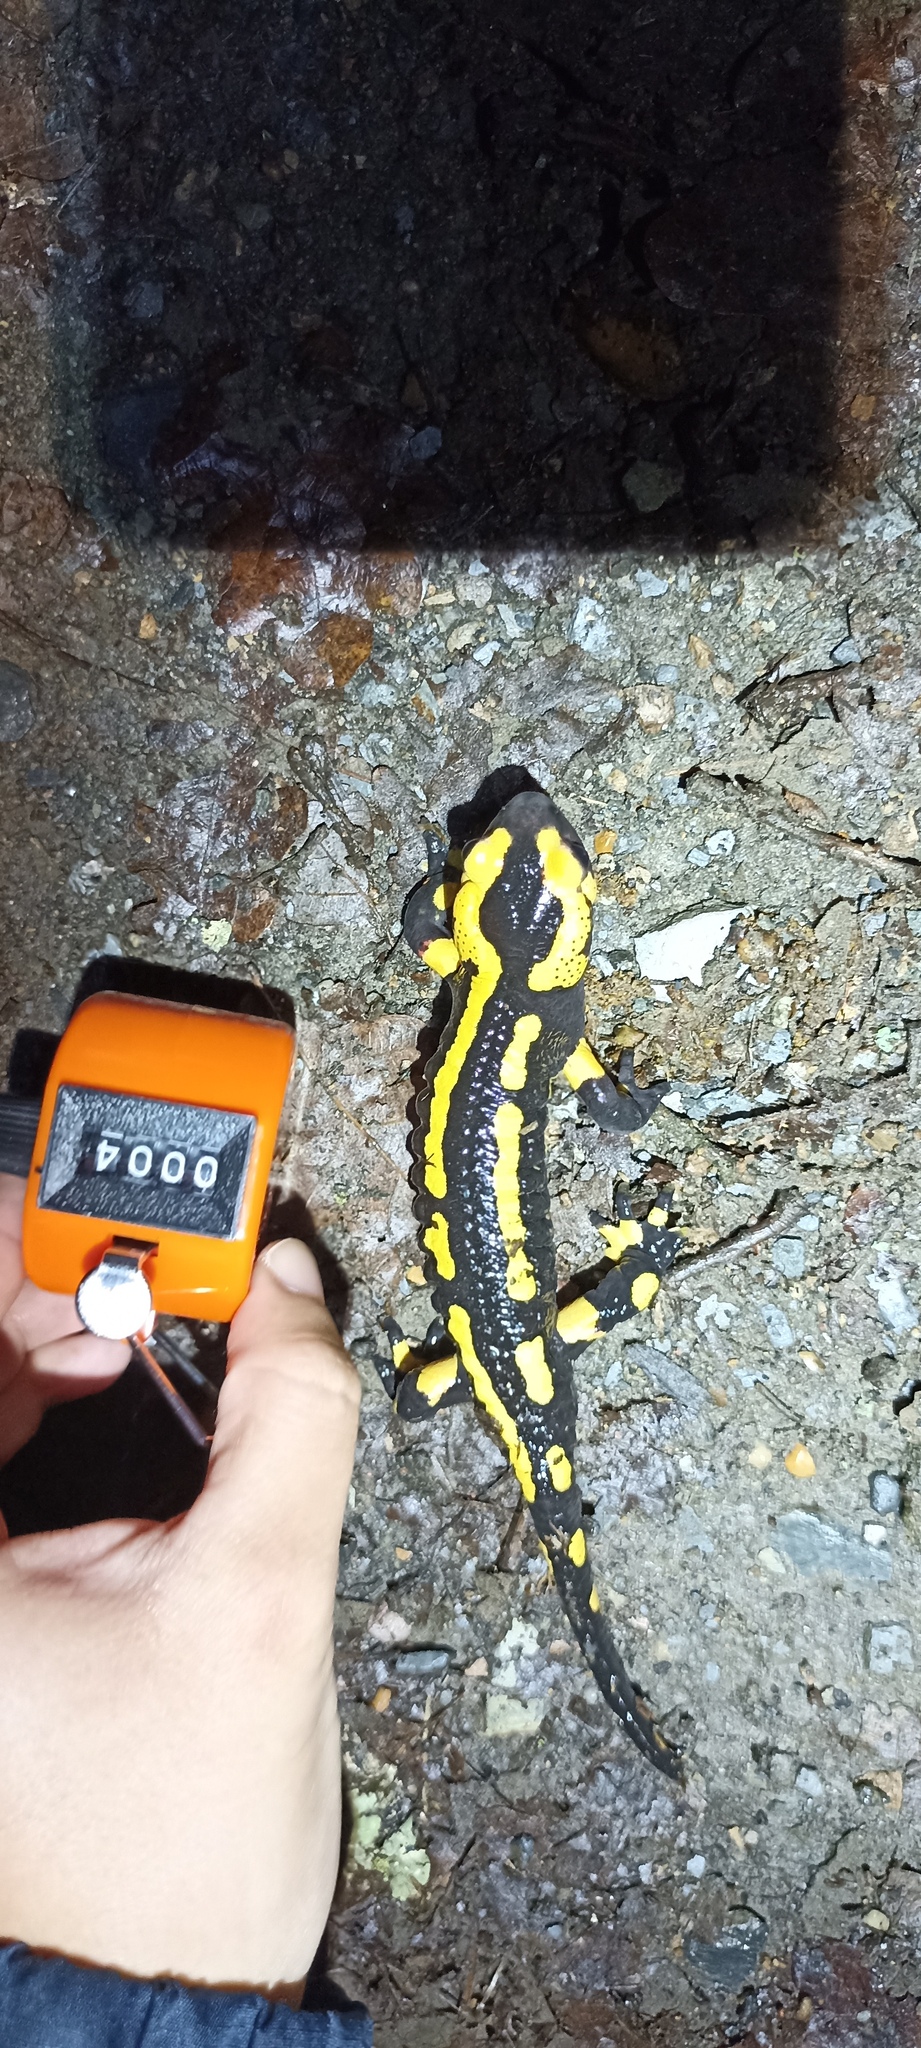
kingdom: Animalia
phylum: Chordata
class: Amphibia
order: Caudata
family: Salamandridae
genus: Salamandra
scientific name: Salamandra salamandra
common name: Fire salamander
